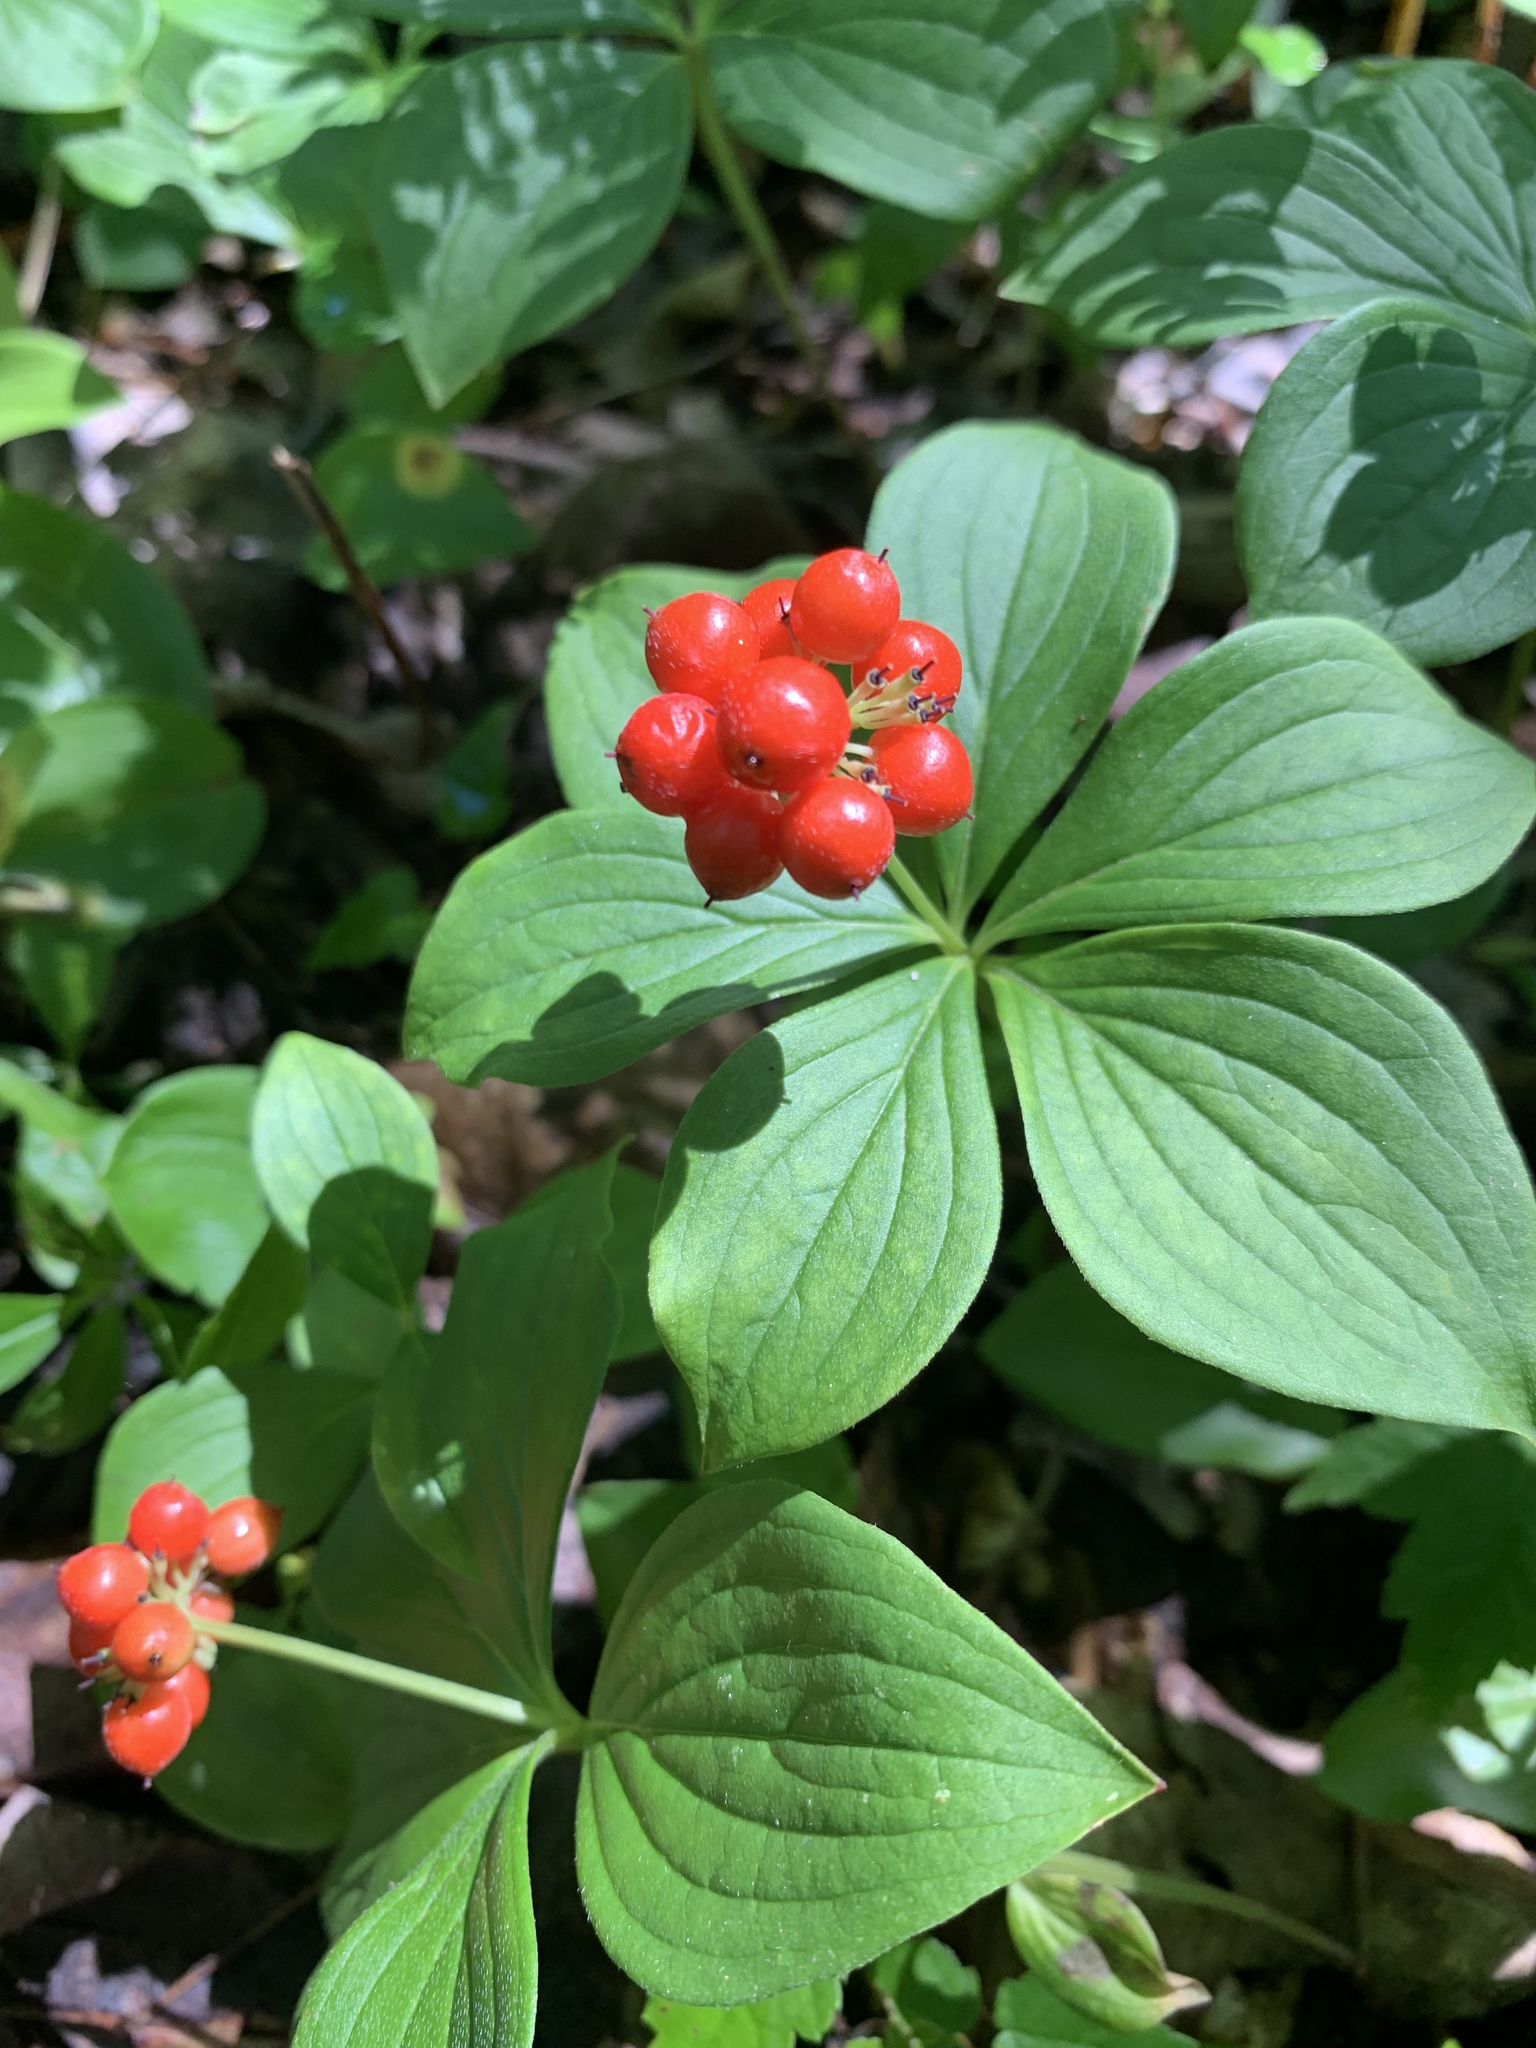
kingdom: Plantae
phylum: Tracheophyta
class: Magnoliopsida
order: Cornales
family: Cornaceae
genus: Cornus
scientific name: Cornus canadensis
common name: Creeping dogwood
